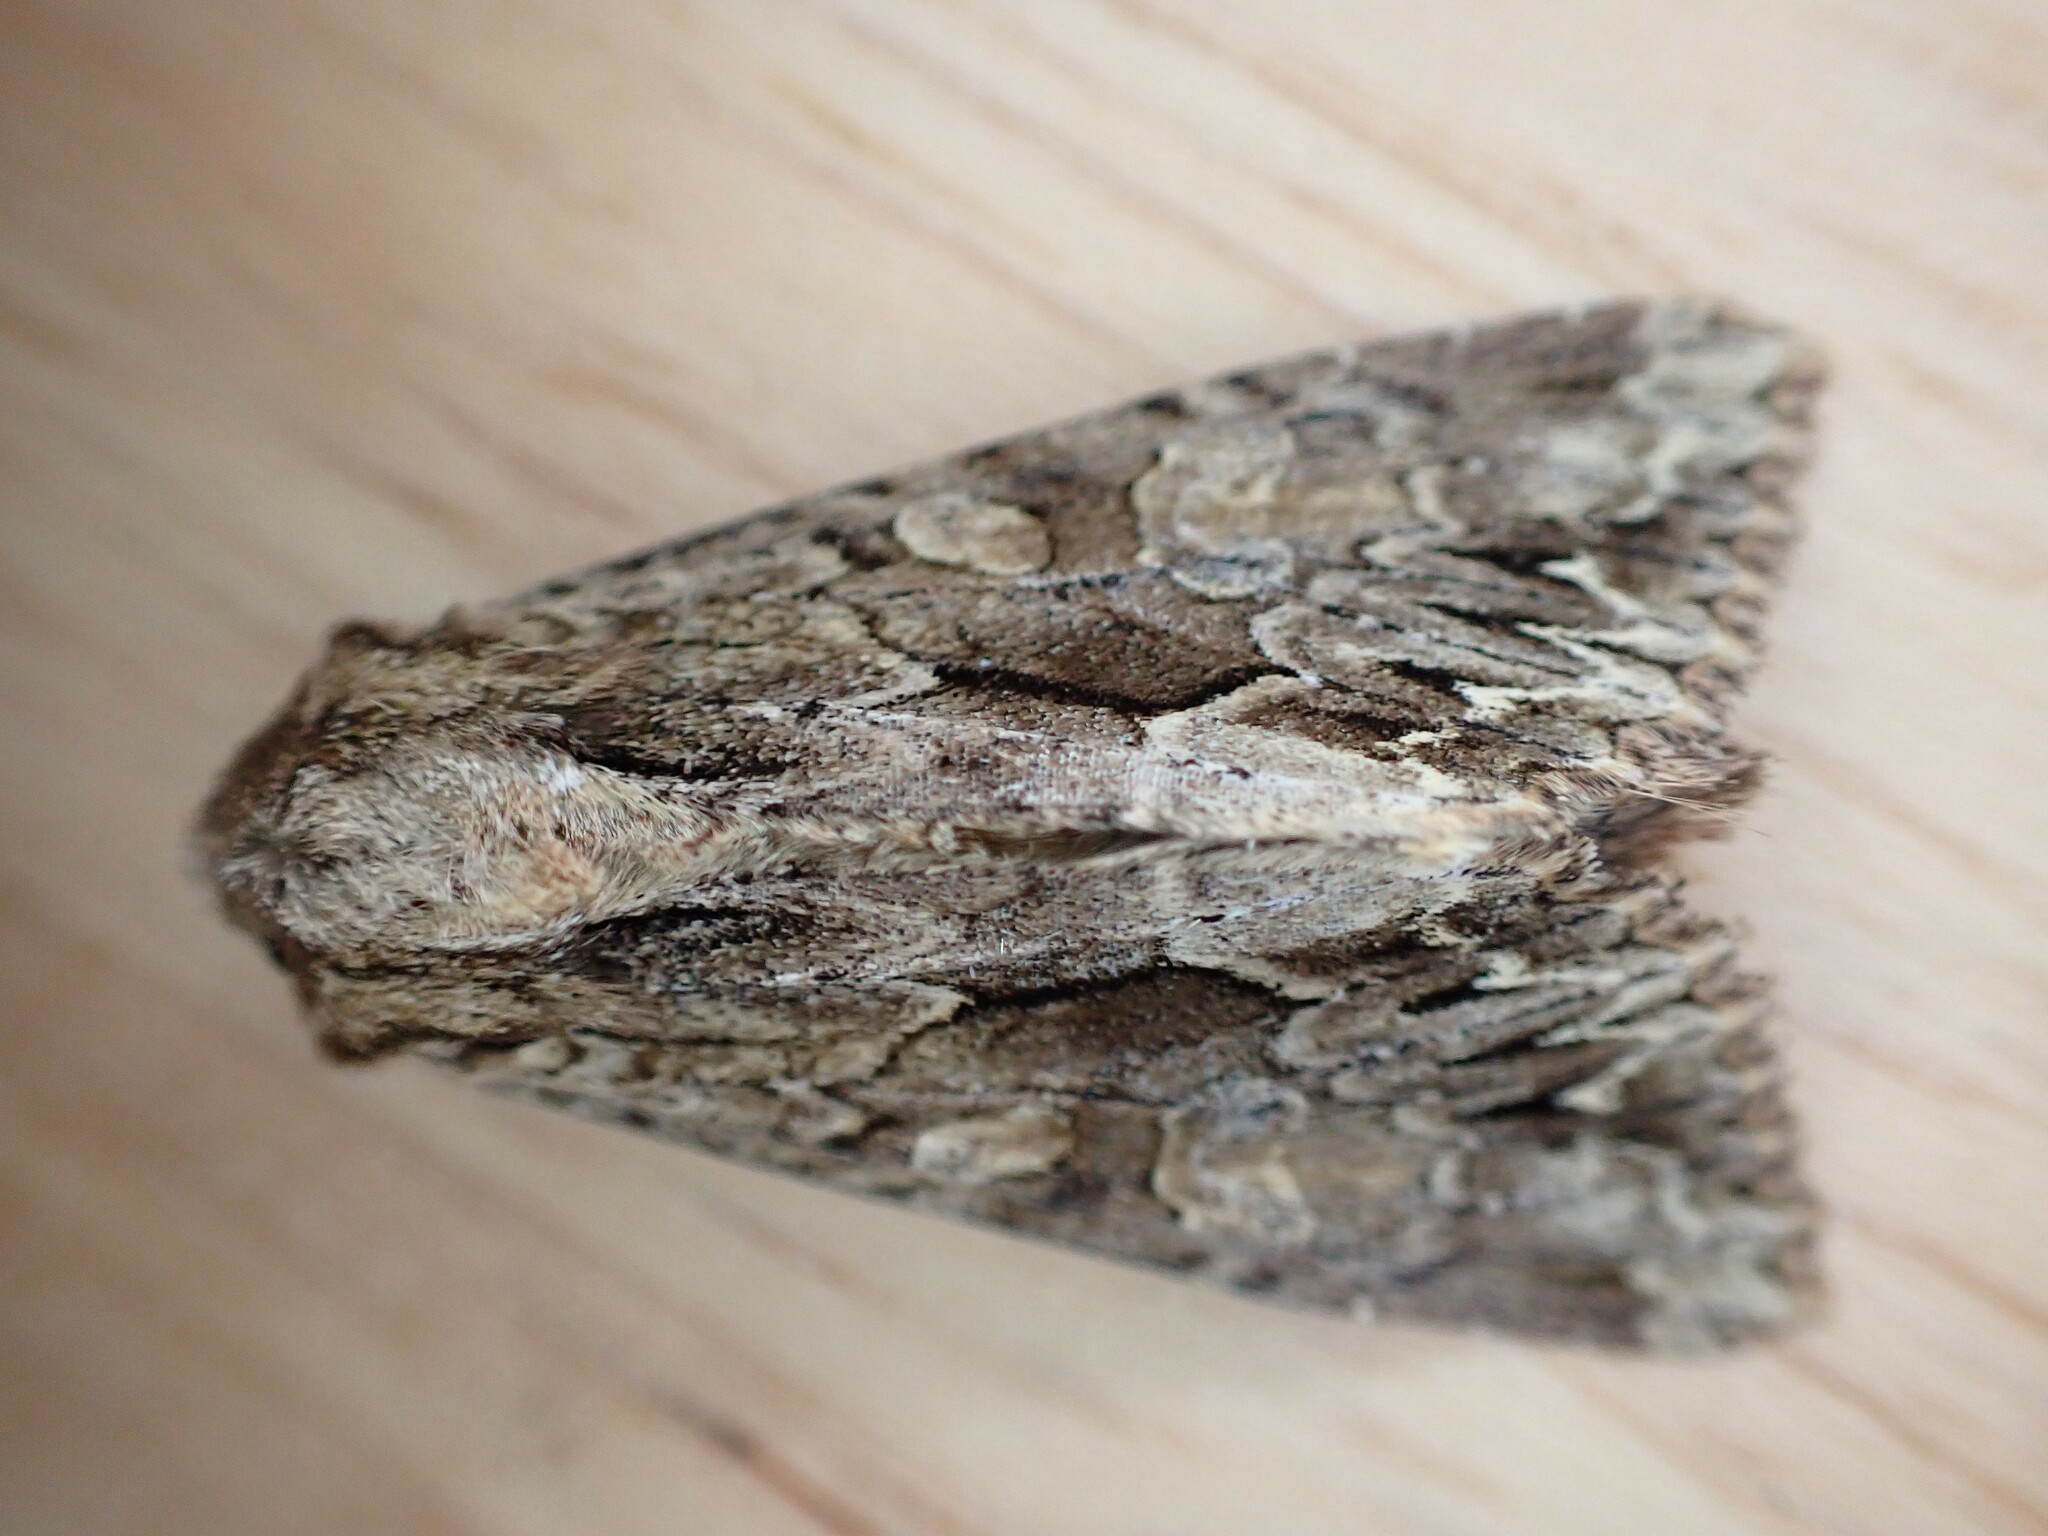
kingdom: Animalia
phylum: Arthropoda
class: Insecta
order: Lepidoptera
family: Noctuidae
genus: Apamea
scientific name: Apamea monoglypha
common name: Dark arches
